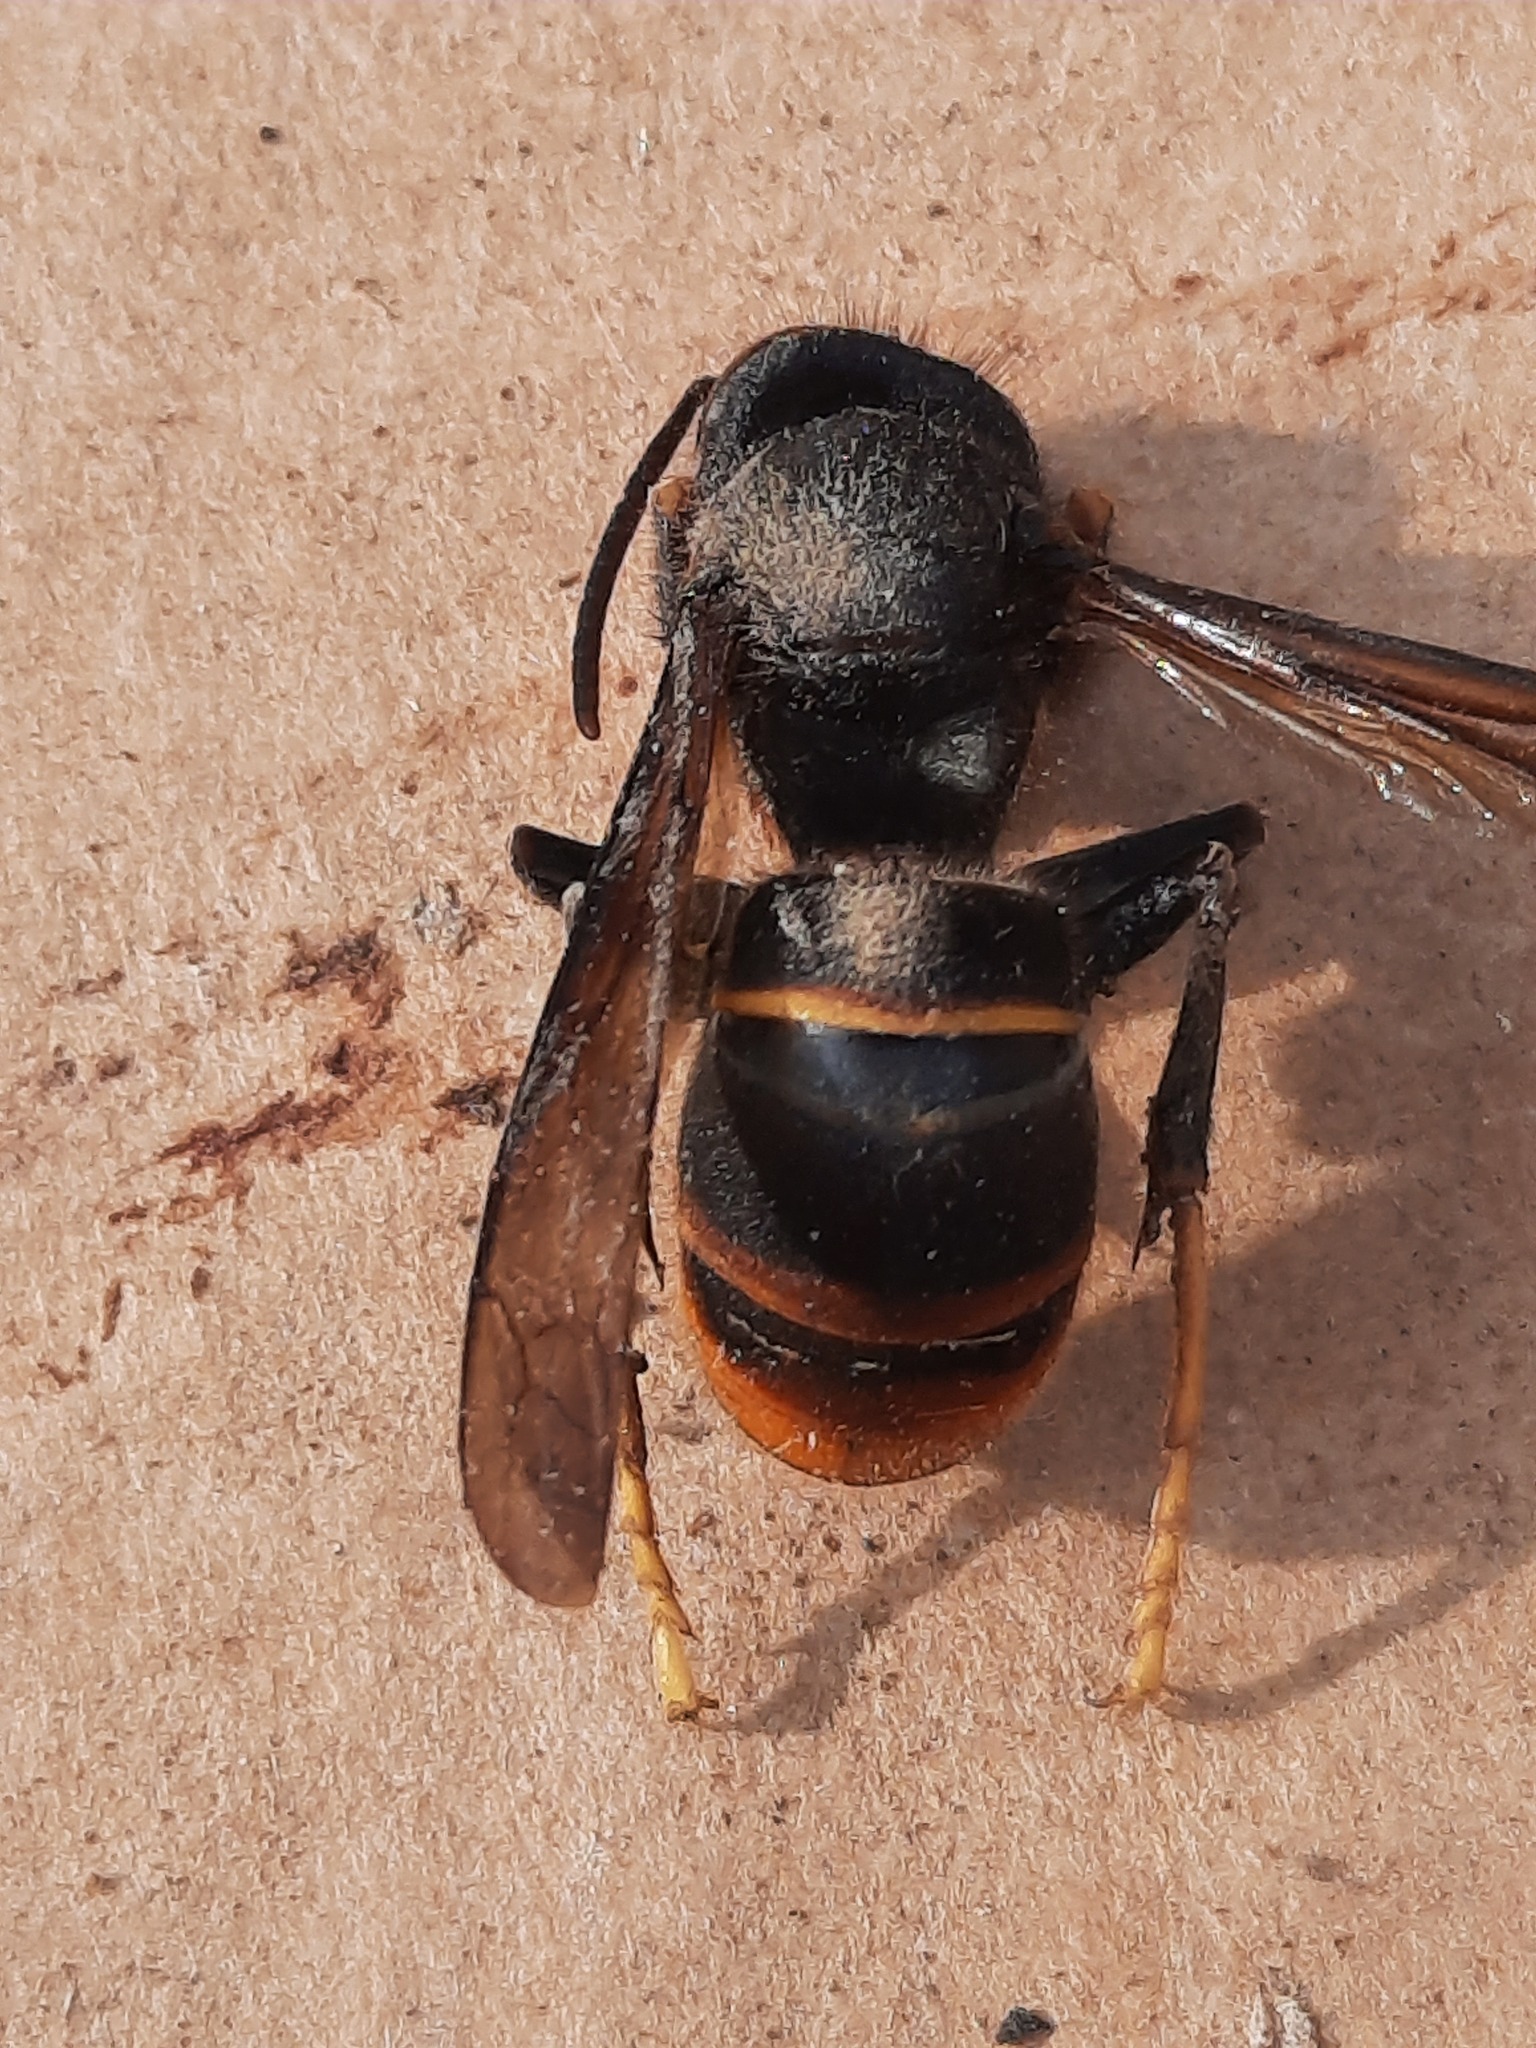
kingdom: Animalia
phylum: Arthropoda
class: Insecta
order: Hymenoptera
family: Vespidae
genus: Vespa
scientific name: Vespa velutina
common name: Asian hornet
